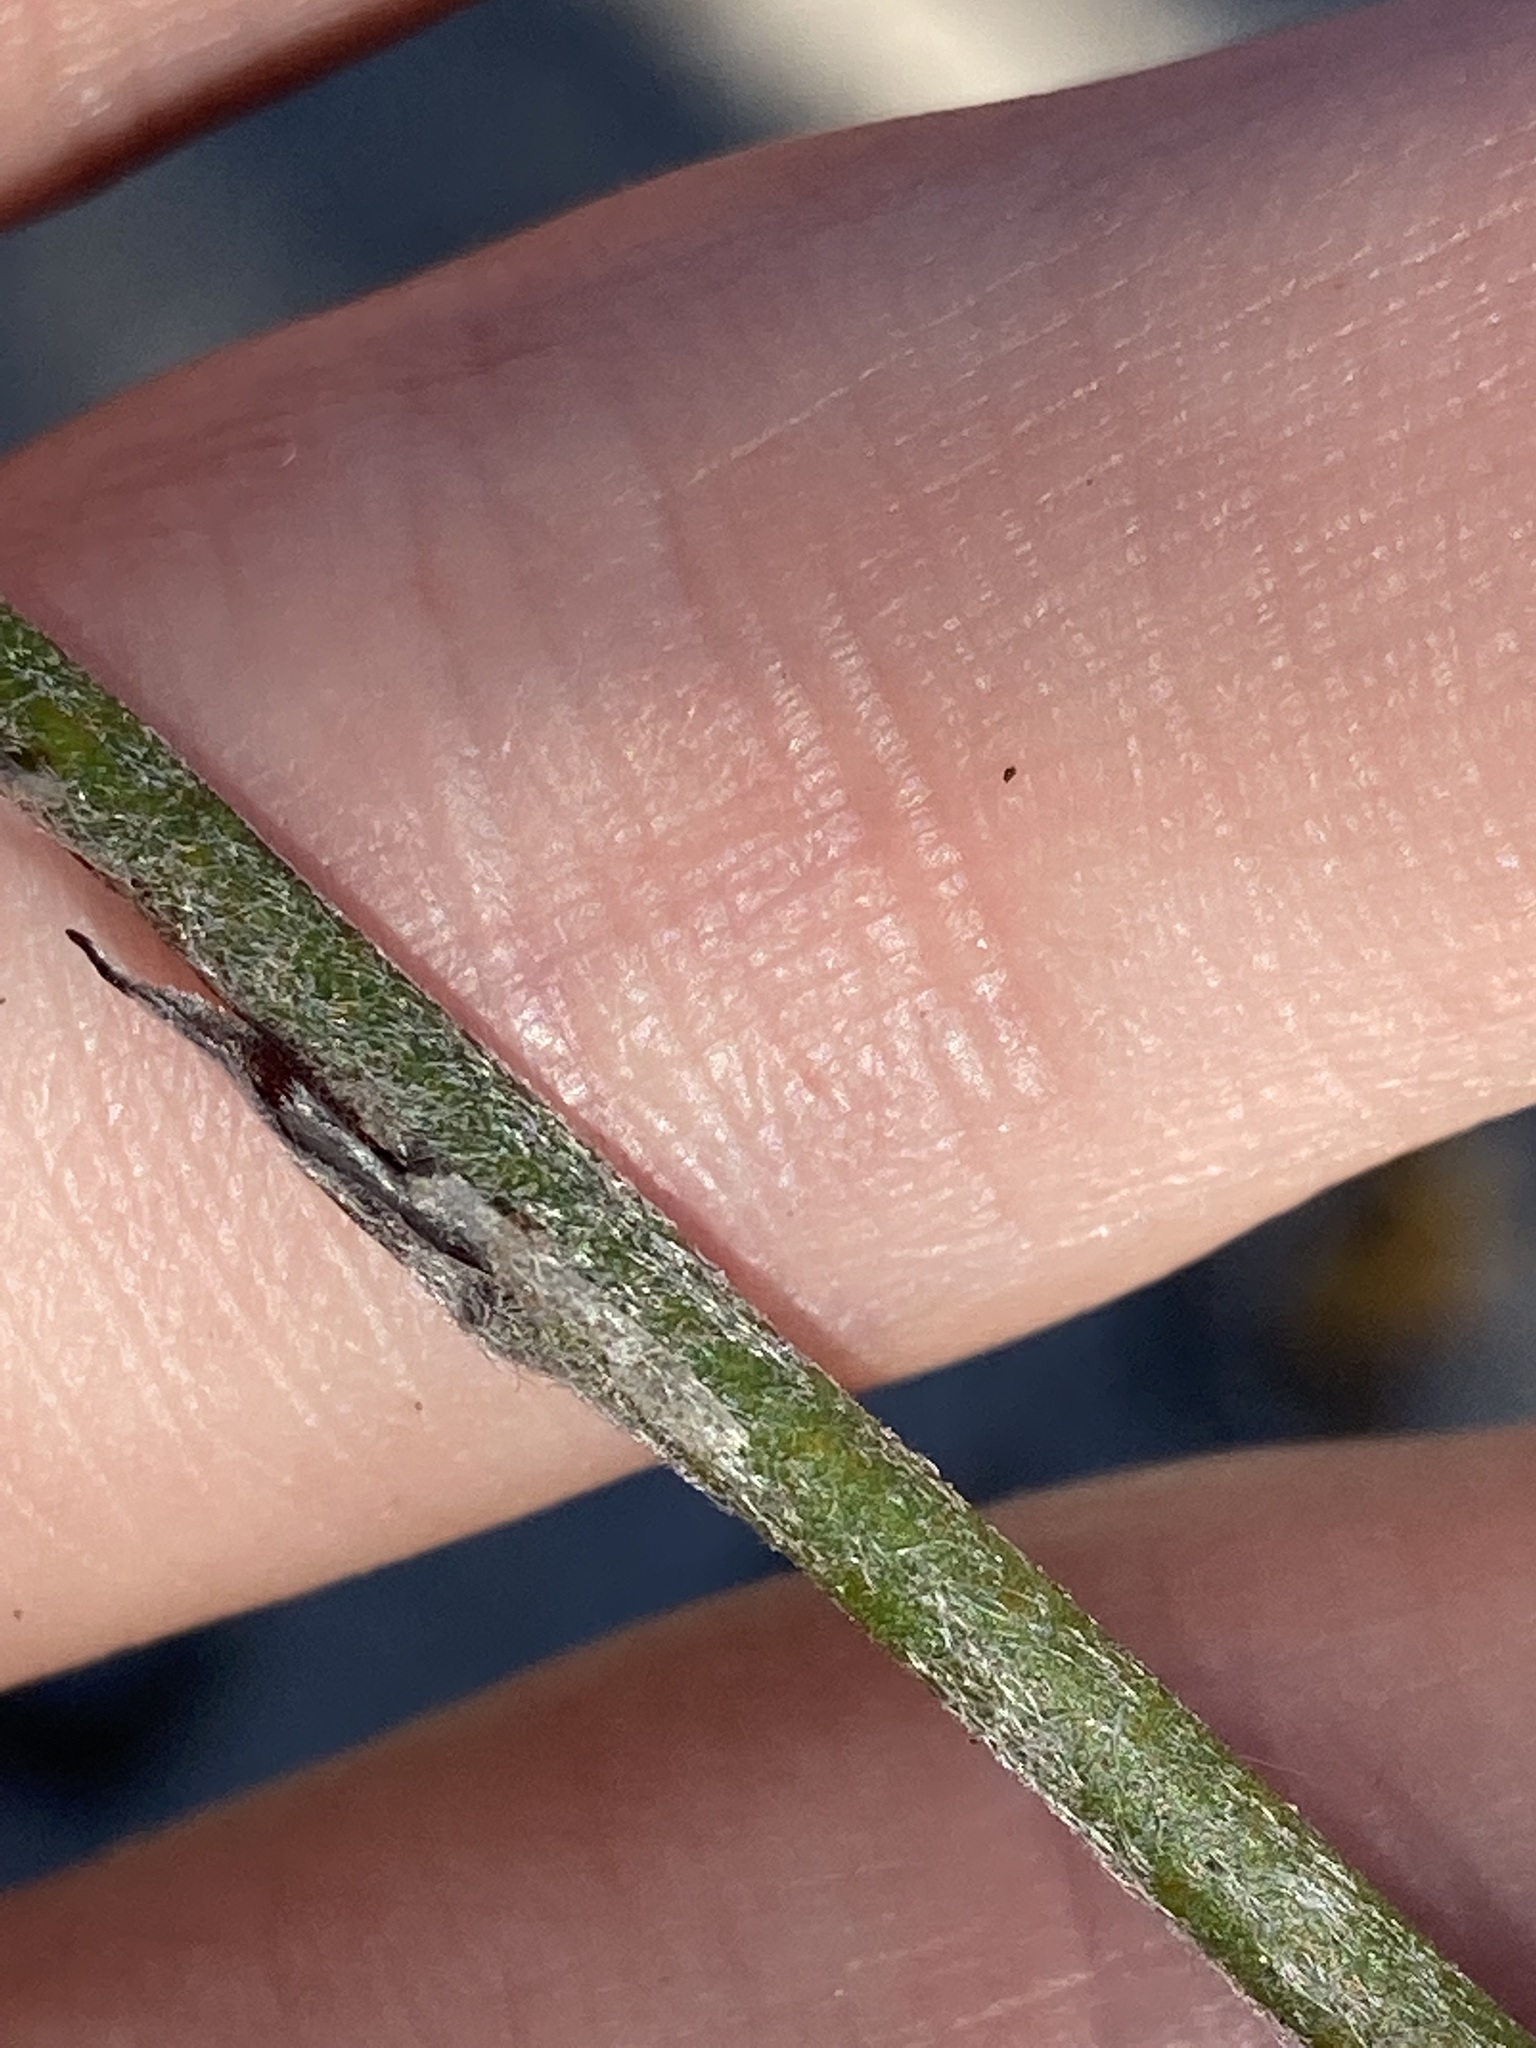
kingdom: Plantae
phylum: Tracheophyta
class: Magnoliopsida
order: Proteales
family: Proteaceae
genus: Conospermum
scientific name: Conospermum crassinervium
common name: Tassel smokebush
